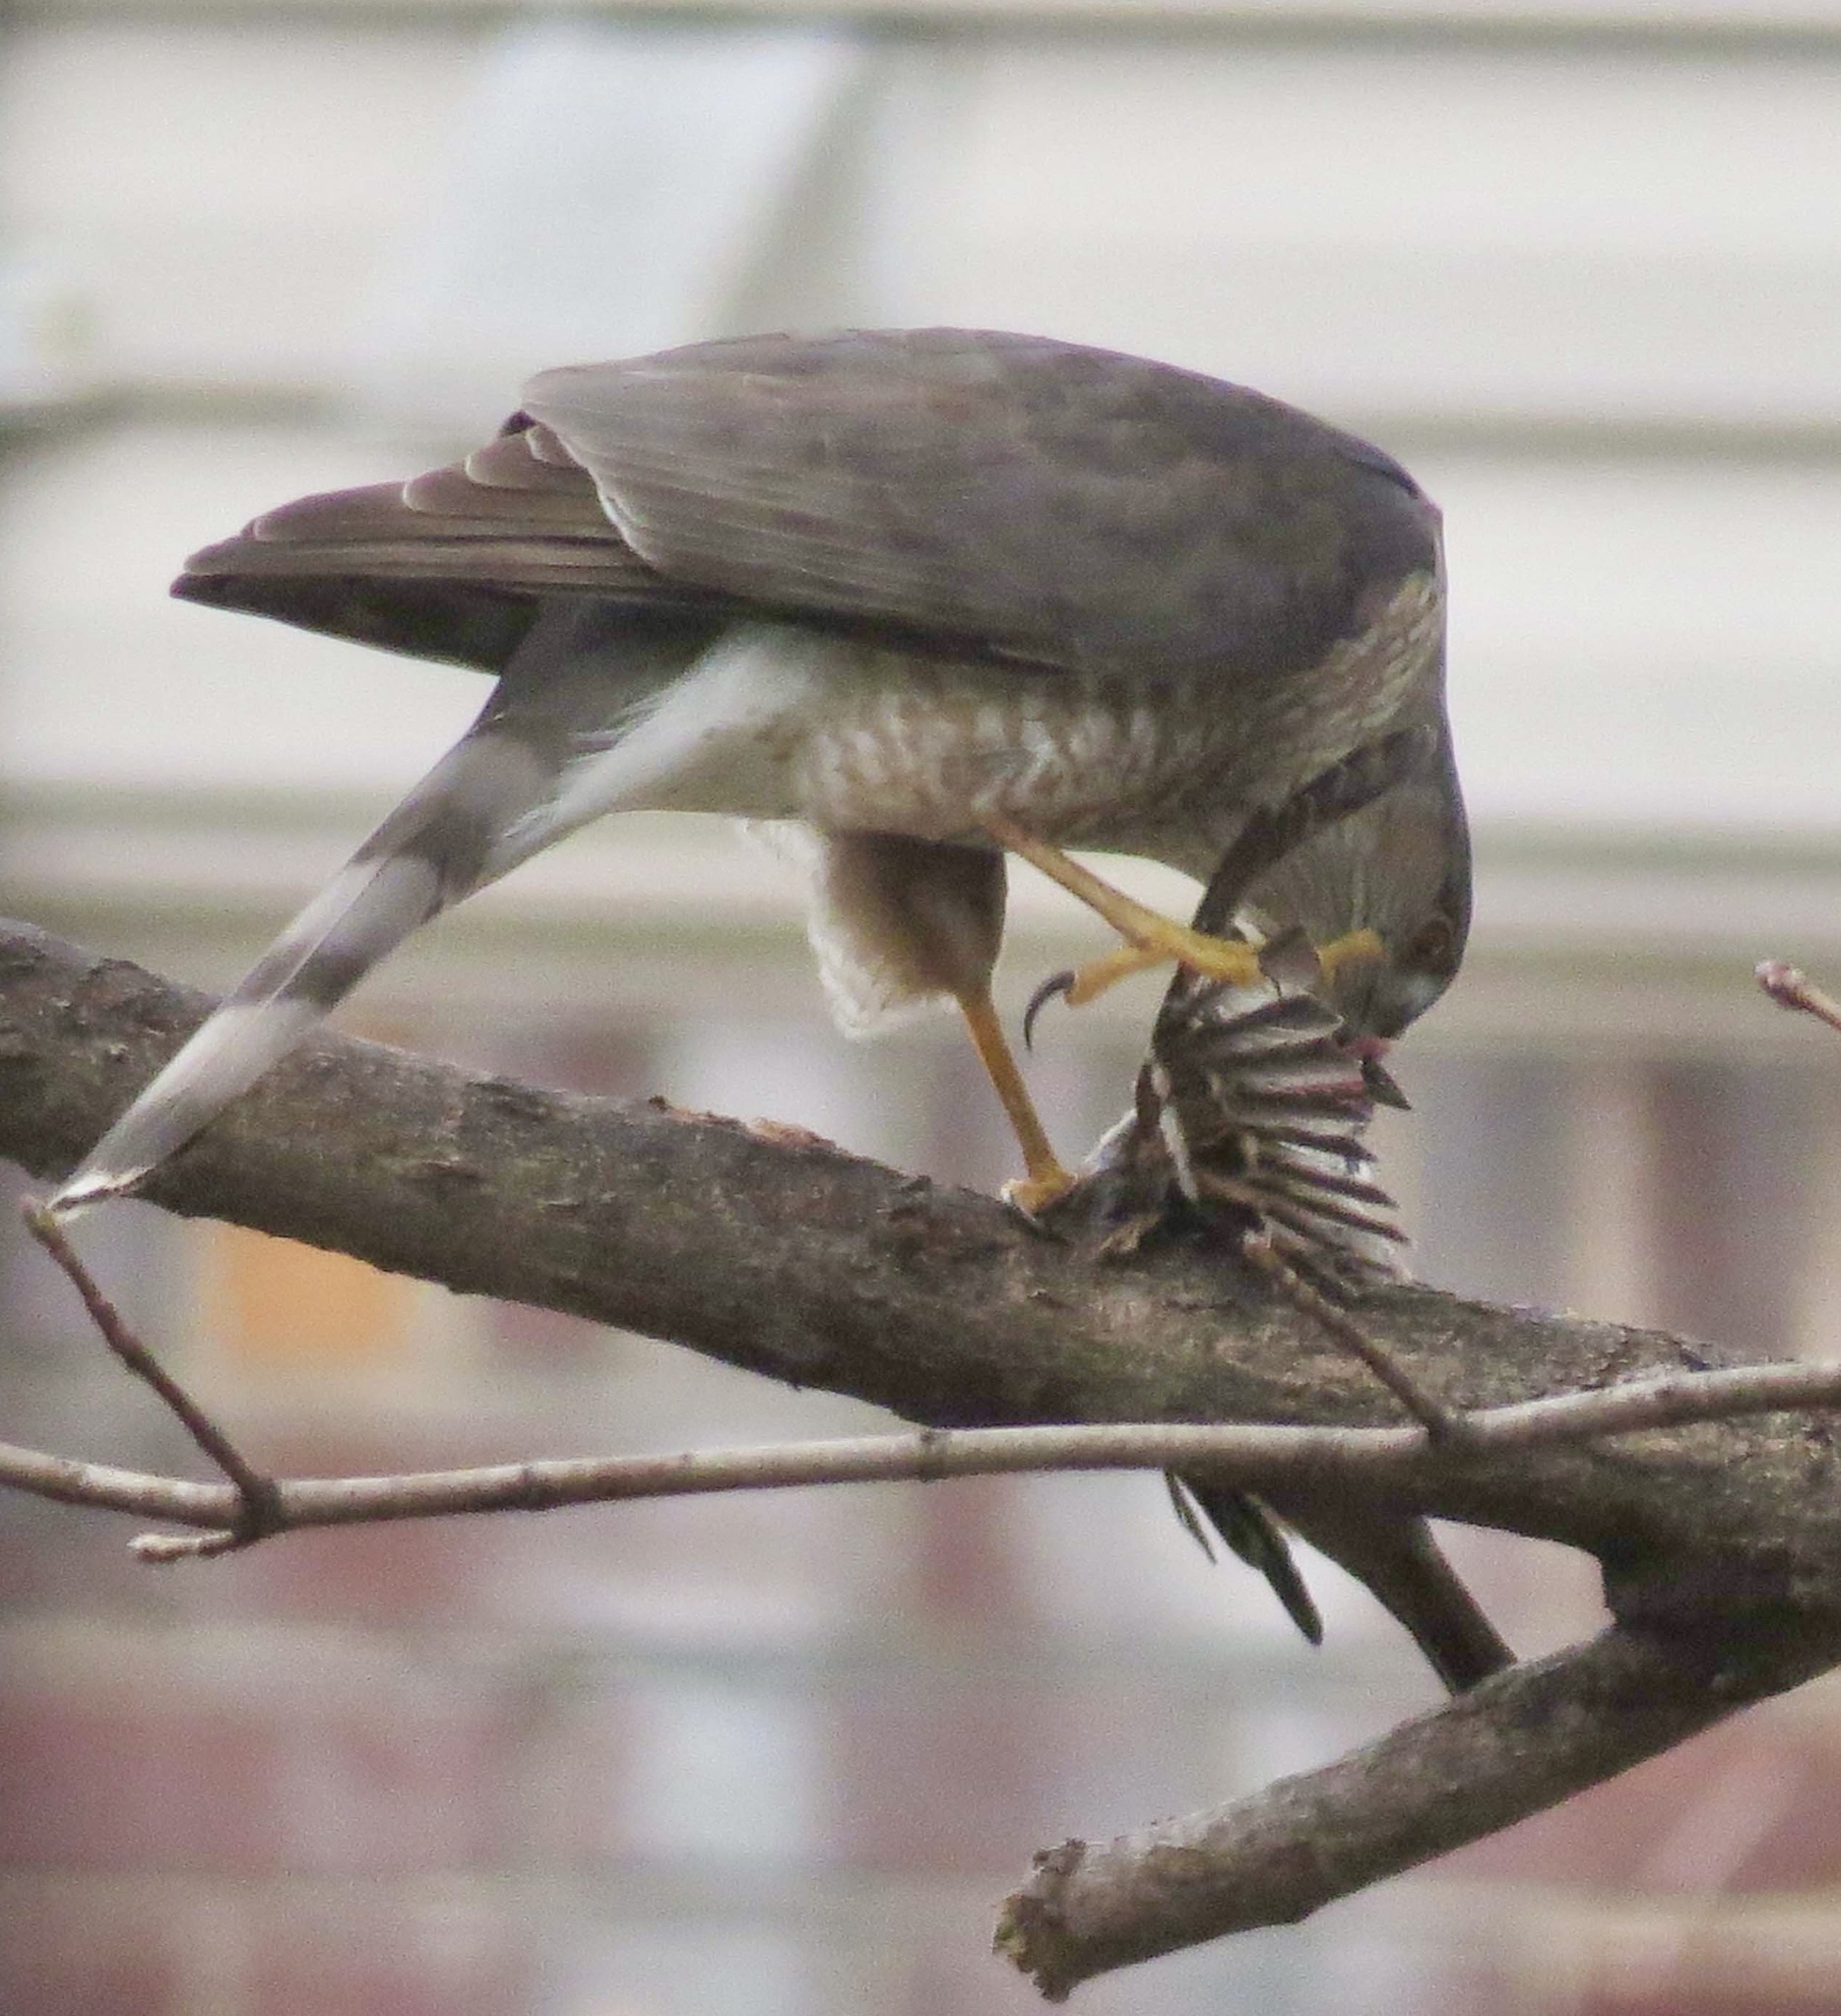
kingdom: Animalia
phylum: Chordata
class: Aves
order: Accipitriformes
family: Accipitridae
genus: Accipiter
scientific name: Accipiter striatus
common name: Sharp-shinned hawk
